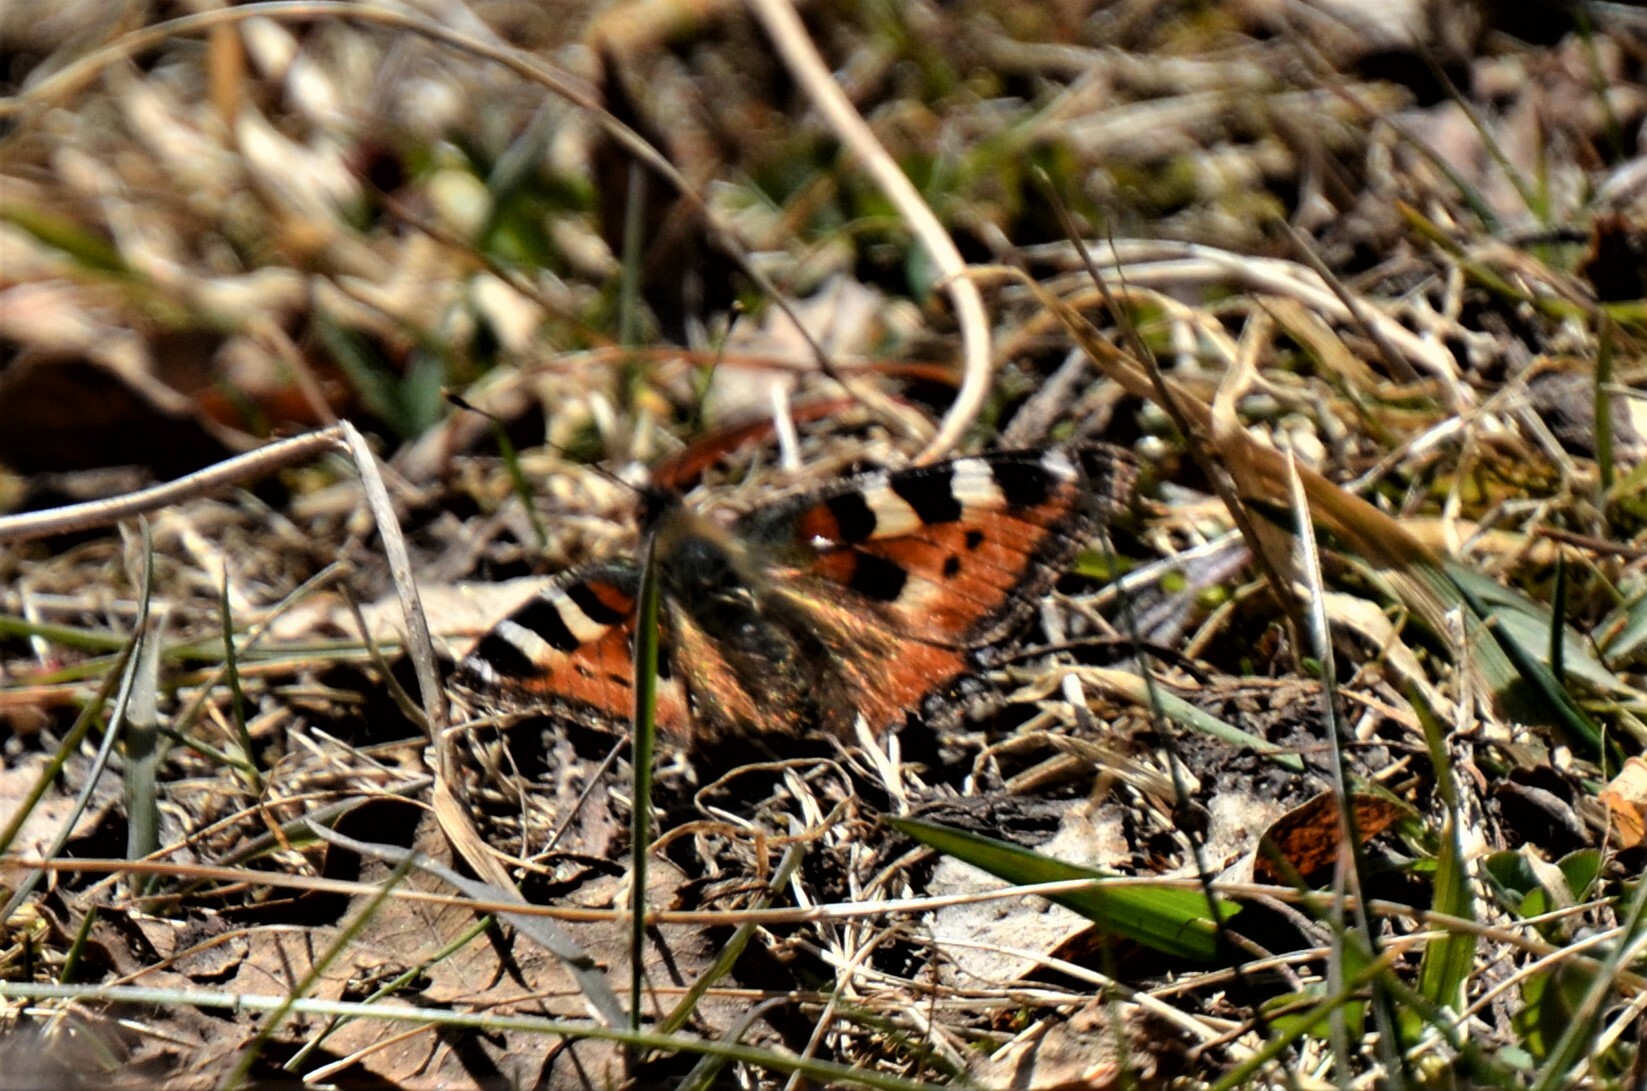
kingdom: Animalia
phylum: Arthropoda
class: Insecta
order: Lepidoptera
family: Nymphalidae
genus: Aglais
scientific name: Aglais urticae
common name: Small tortoiseshell
